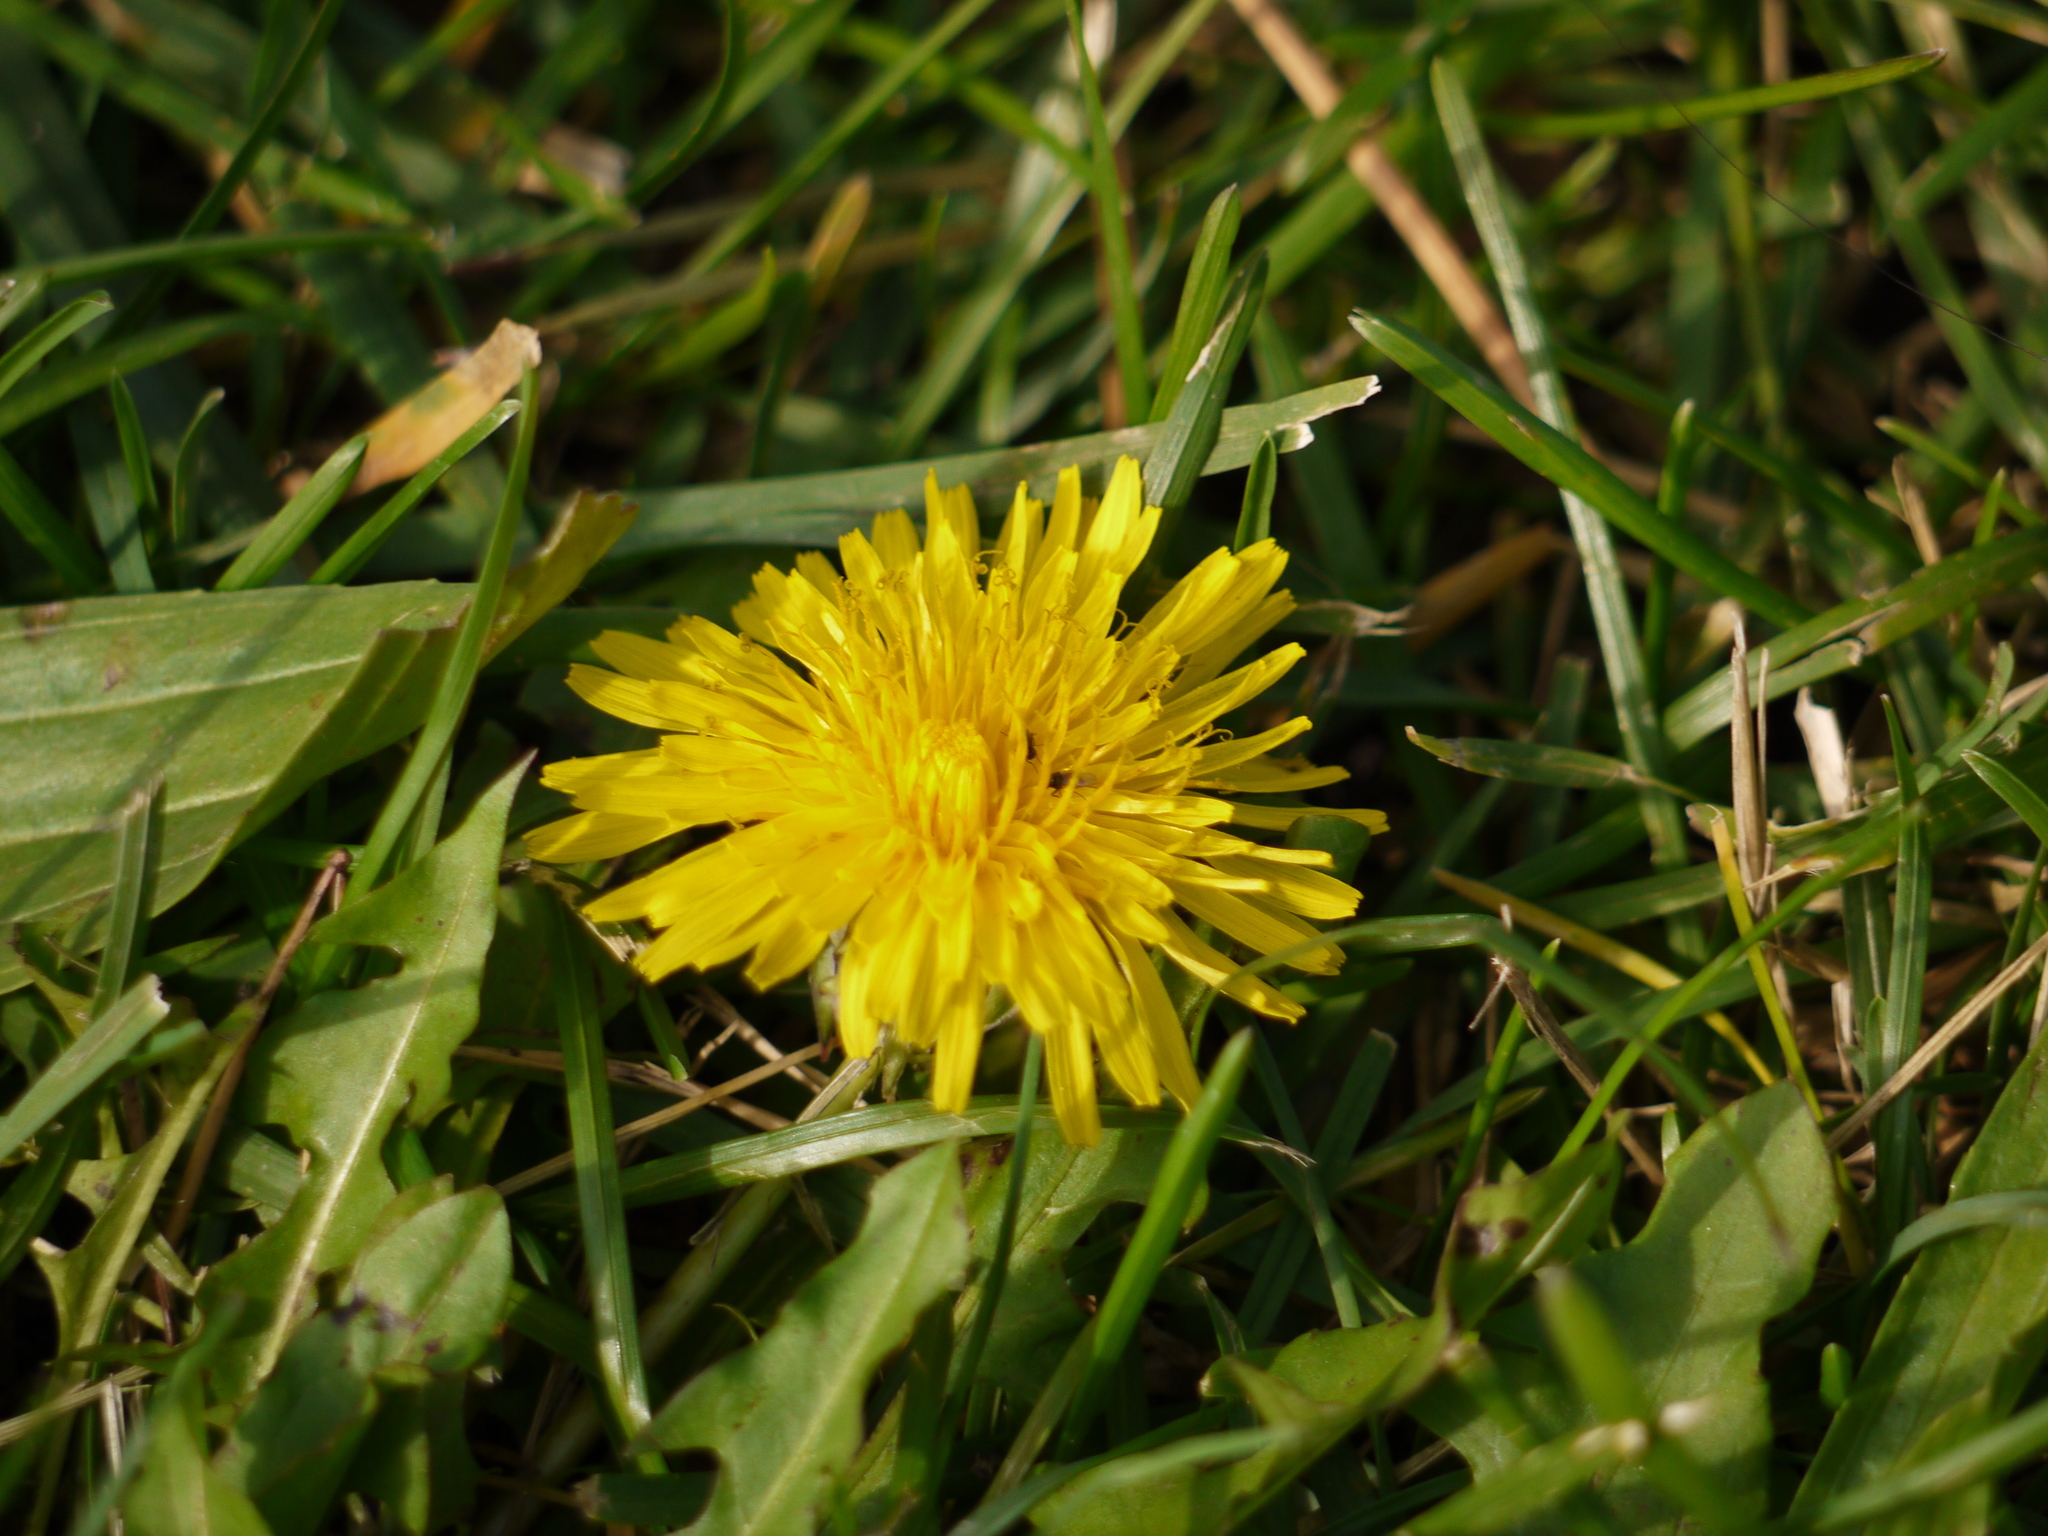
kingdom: Plantae
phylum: Tracheophyta
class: Magnoliopsida
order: Asterales
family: Asteraceae
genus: Taraxacum
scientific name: Taraxacum officinale
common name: Common dandelion
